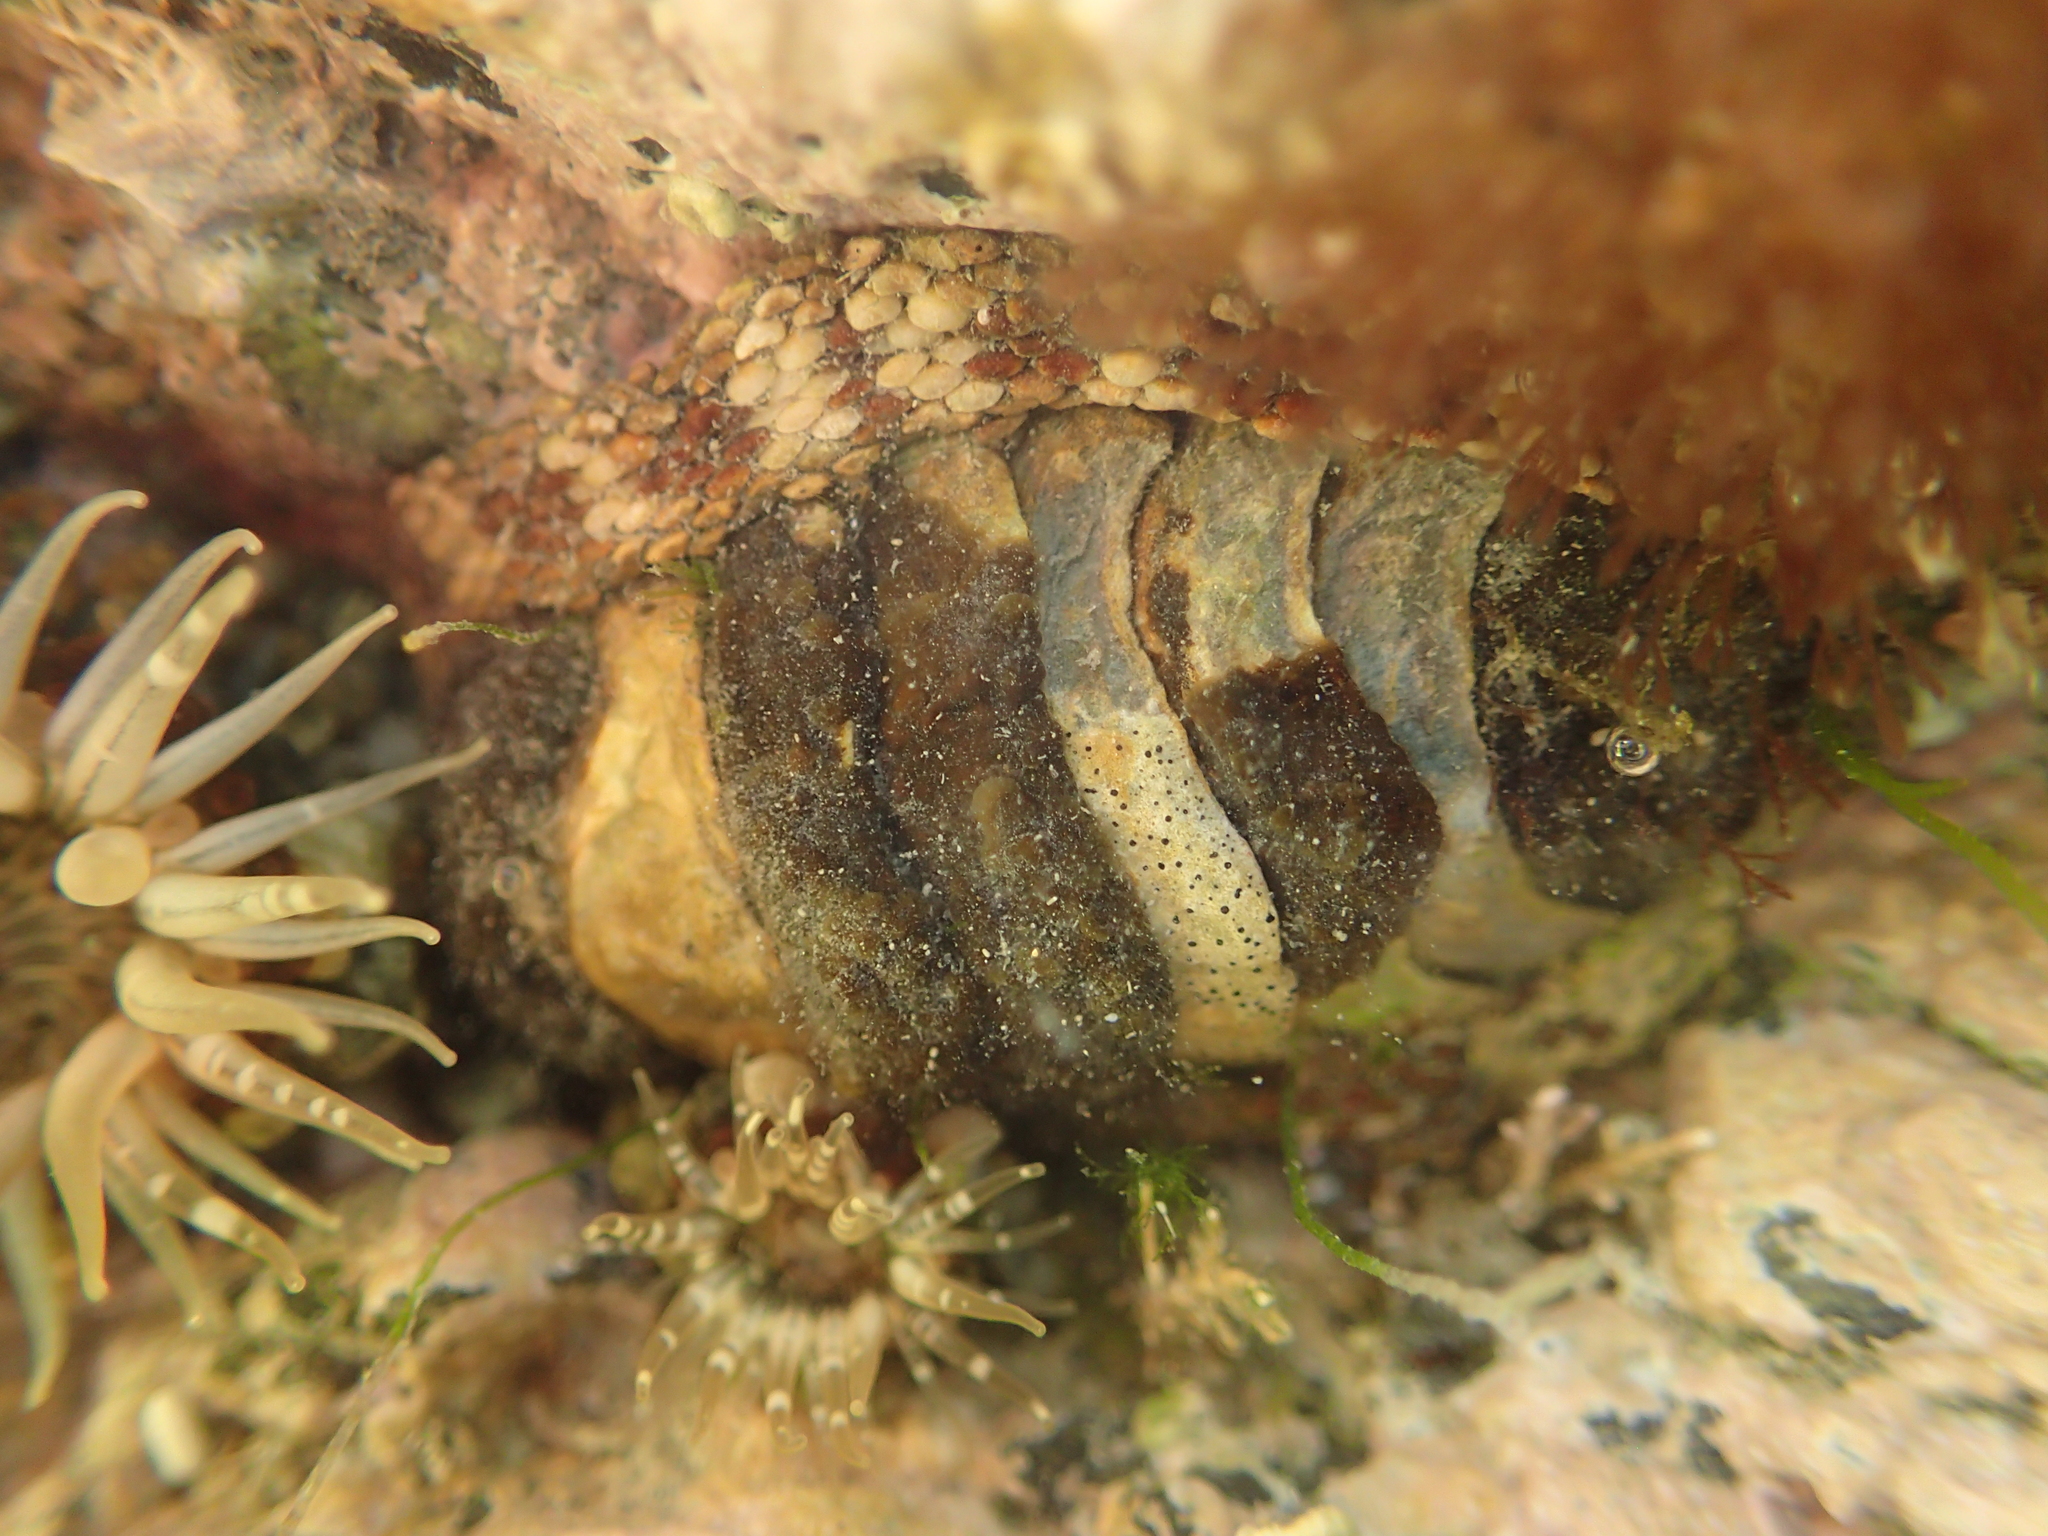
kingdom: Animalia
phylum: Mollusca
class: Polyplacophora
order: Chitonida
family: Chitonidae
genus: Sypharochiton
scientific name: Sypharochiton pelliserpentis
